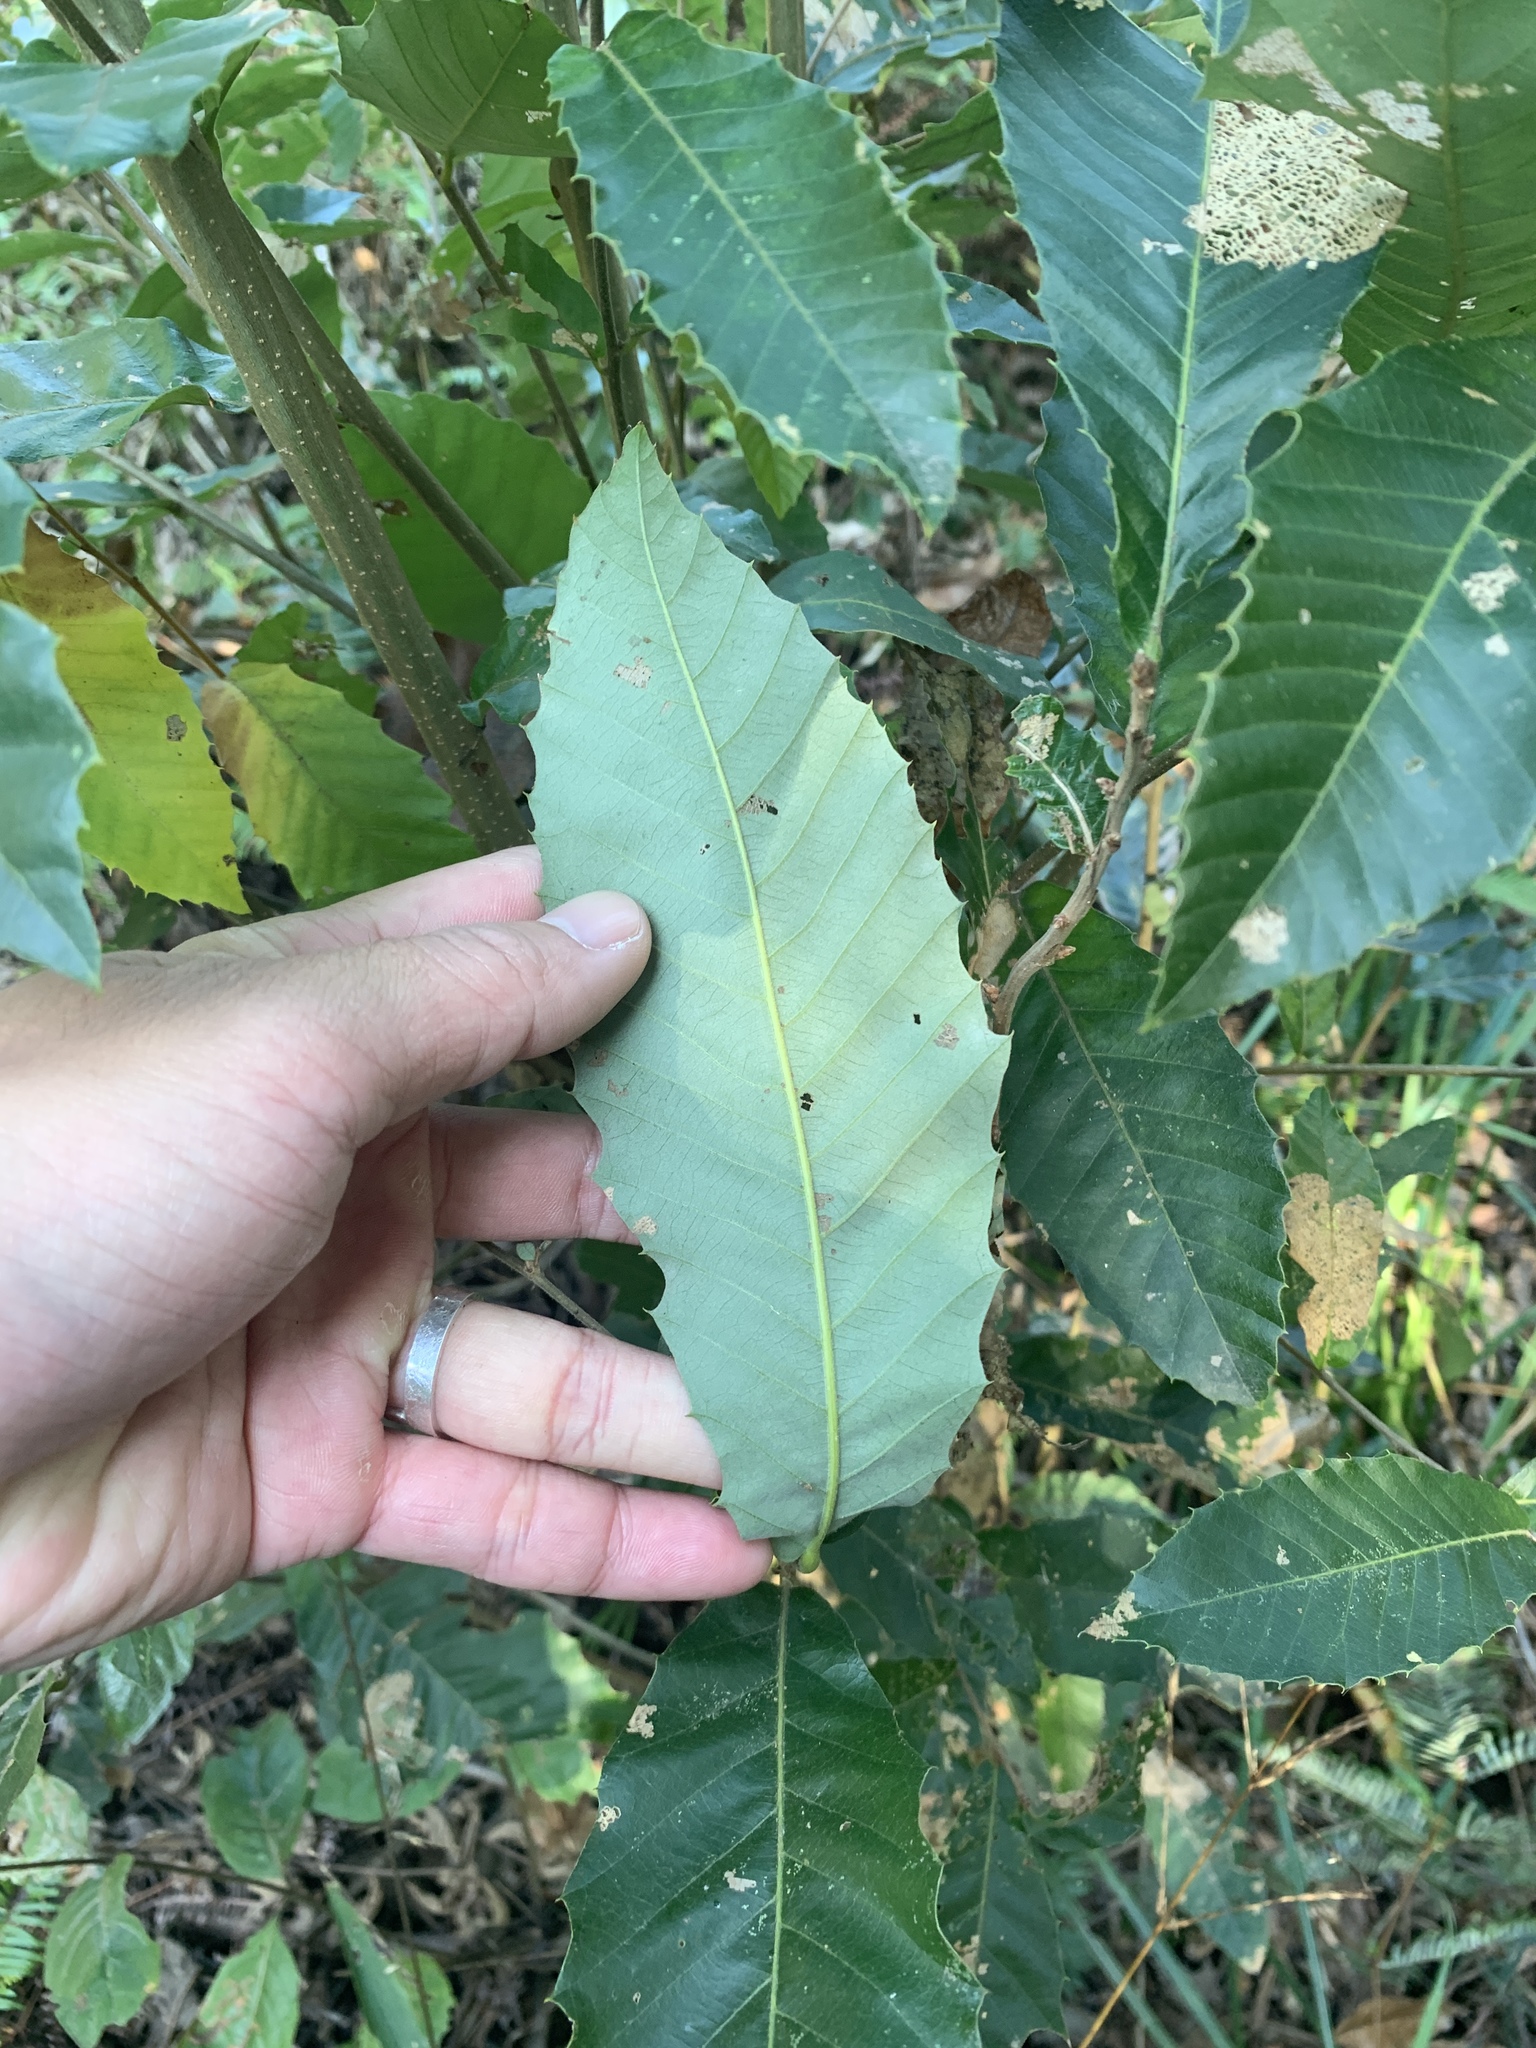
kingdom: Plantae
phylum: Tracheophyta
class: Magnoliopsida
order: Fagales
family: Fagaceae
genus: Quercus
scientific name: Quercus variabilis
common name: Chinese cork oak
